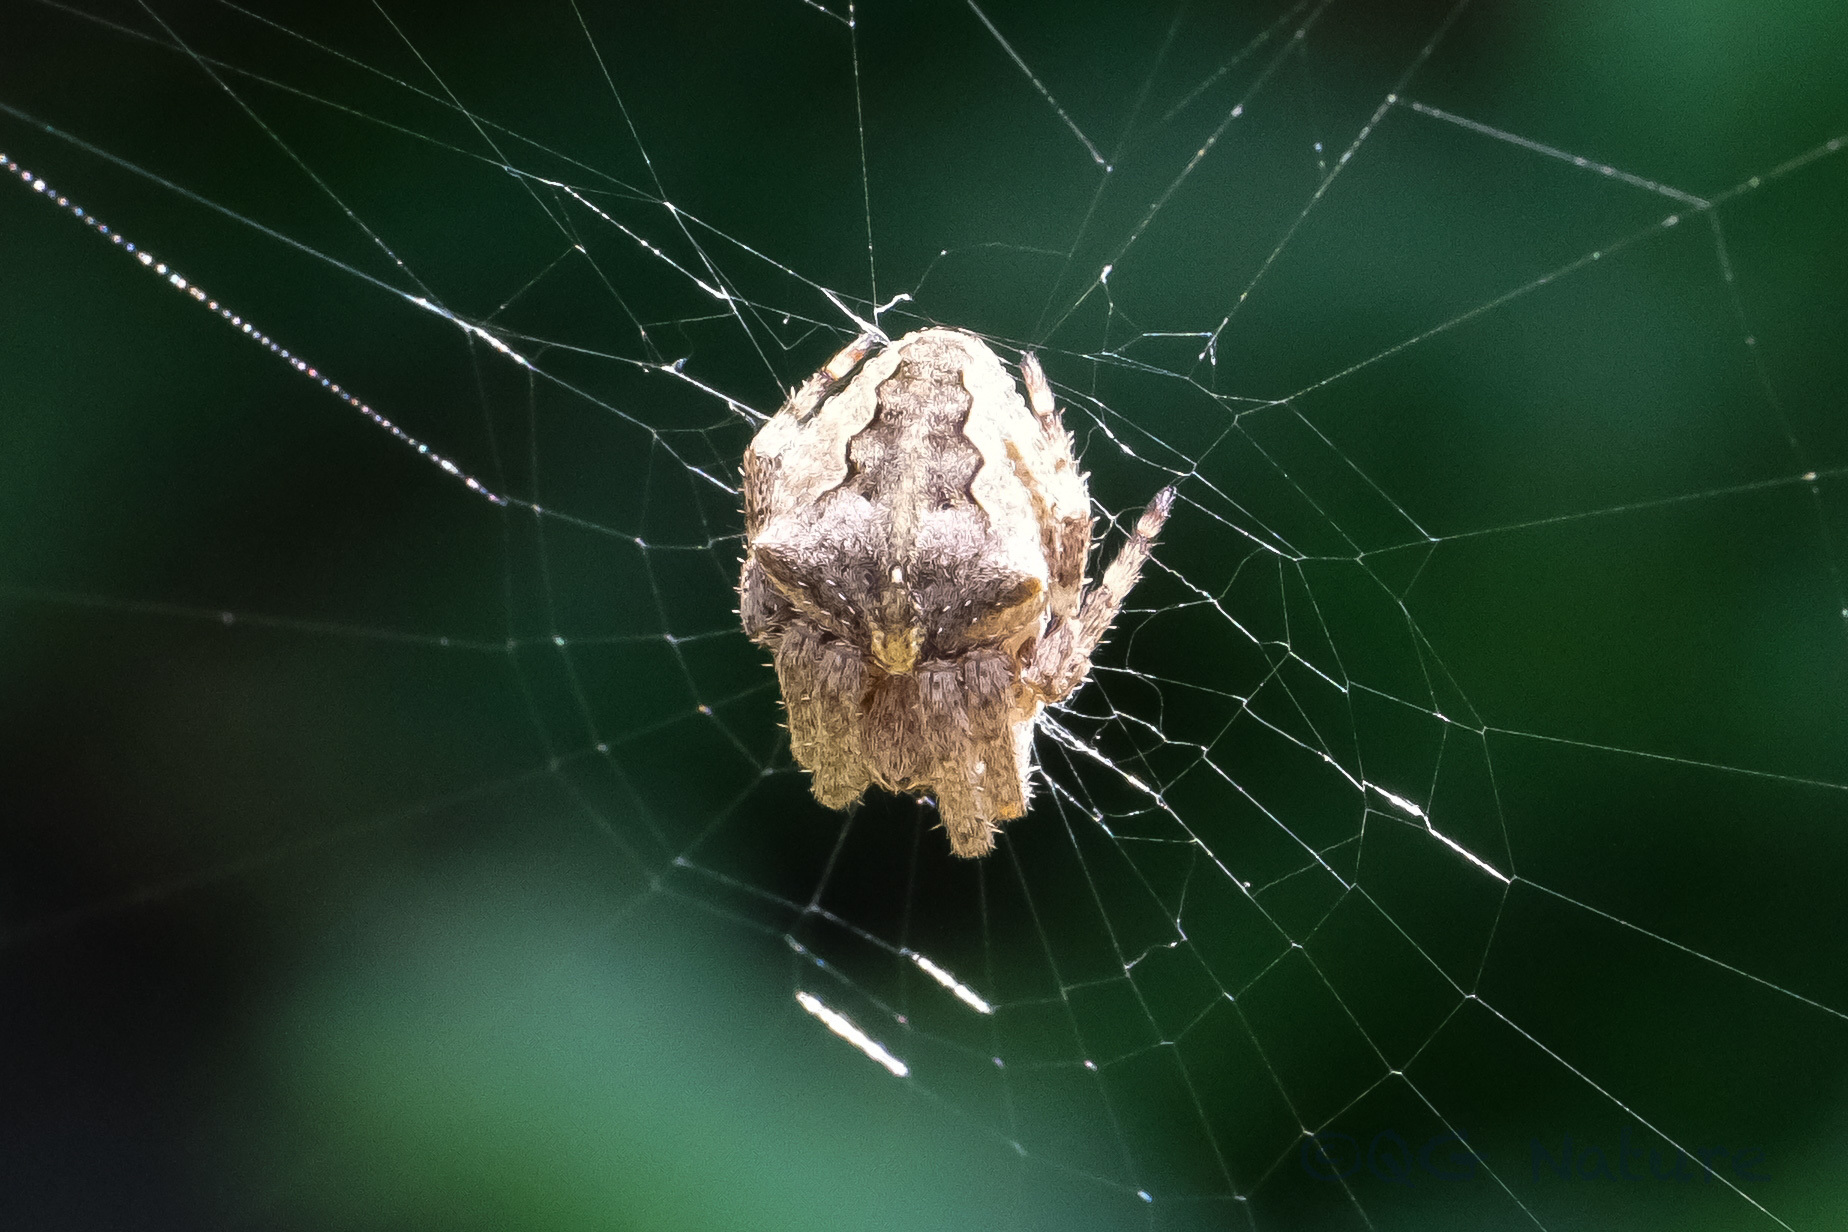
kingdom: Animalia
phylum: Arthropoda
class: Arachnida
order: Araneae
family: Araneidae
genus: Araneus
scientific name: Araneus ventricosus
